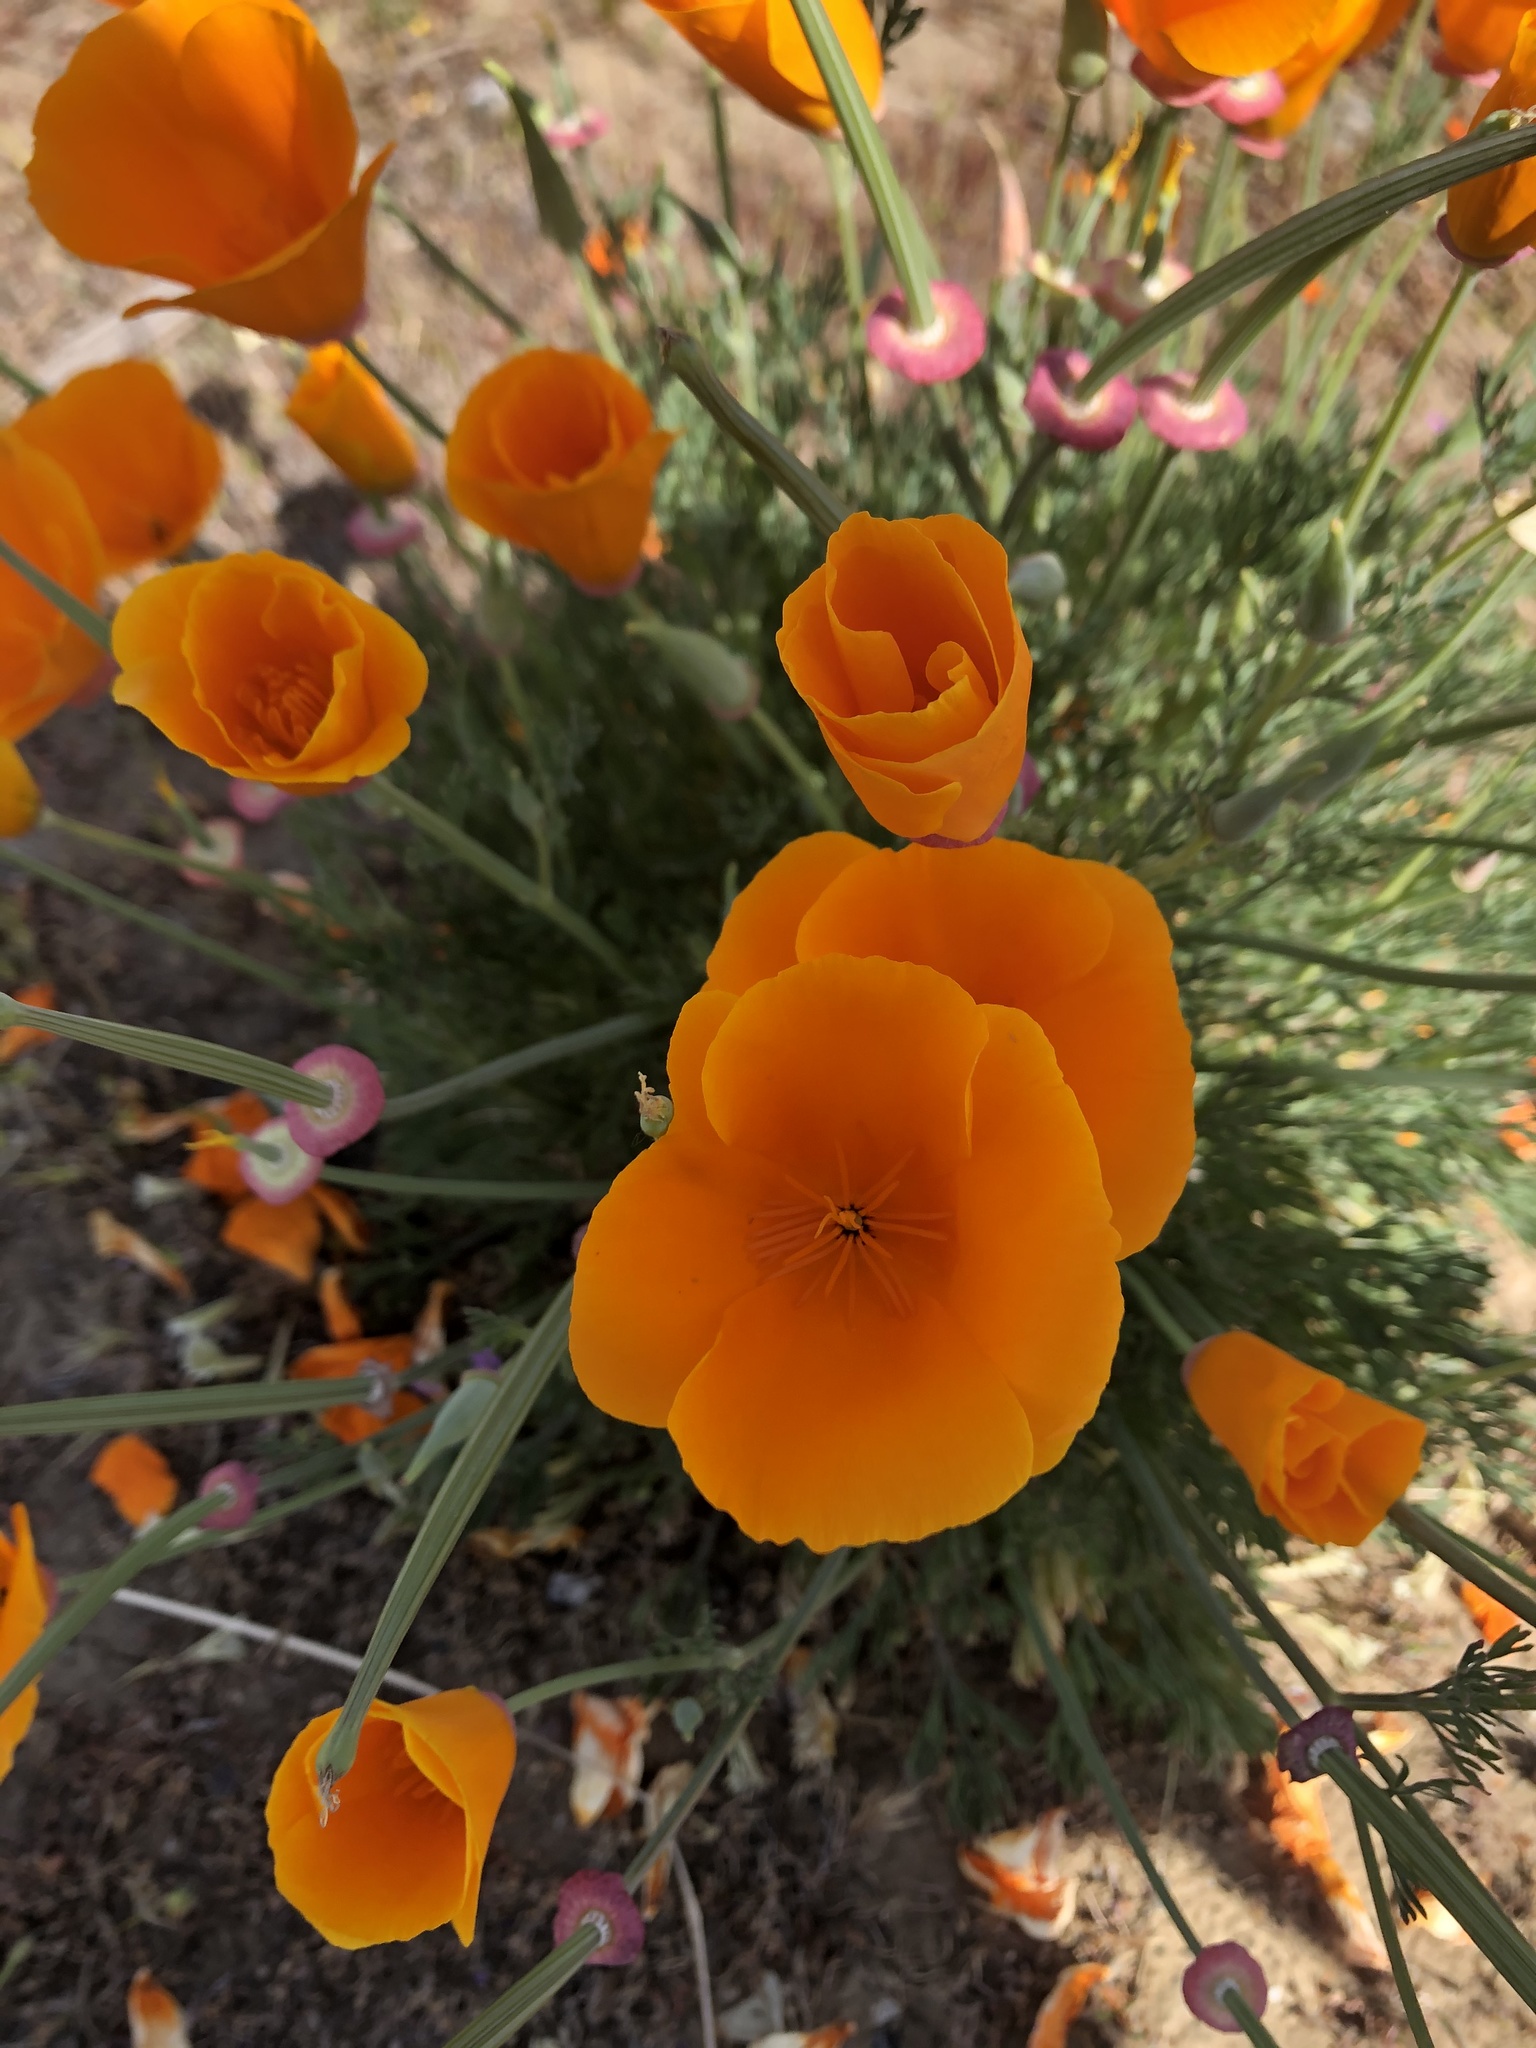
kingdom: Plantae
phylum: Tracheophyta
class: Magnoliopsida
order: Ranunculales
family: Papaveraceae
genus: Eschscholzia
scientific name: Eschscholzia californica
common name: California poppy
